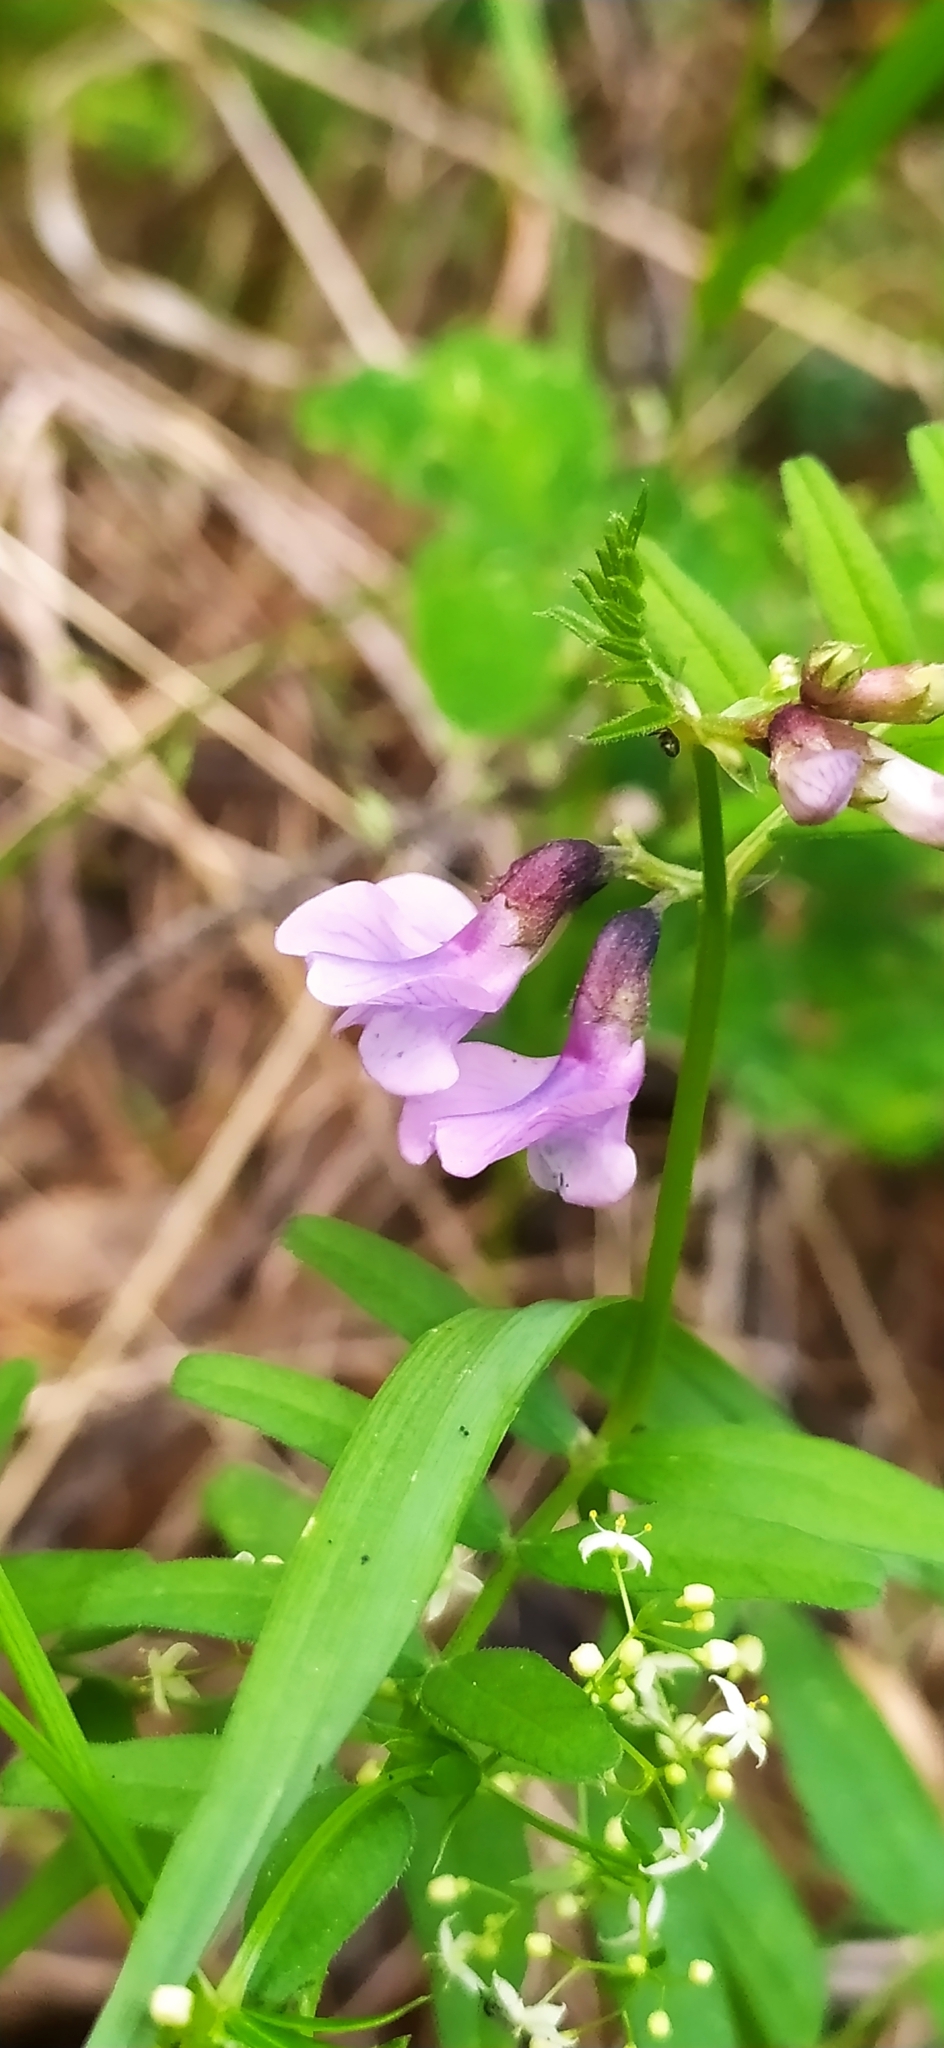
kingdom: Plantae
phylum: Tracheophyta
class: Magnoliopsida
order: Fabales
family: Fabaceae
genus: Vicia
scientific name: Vicia sepium
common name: Bush vetch
